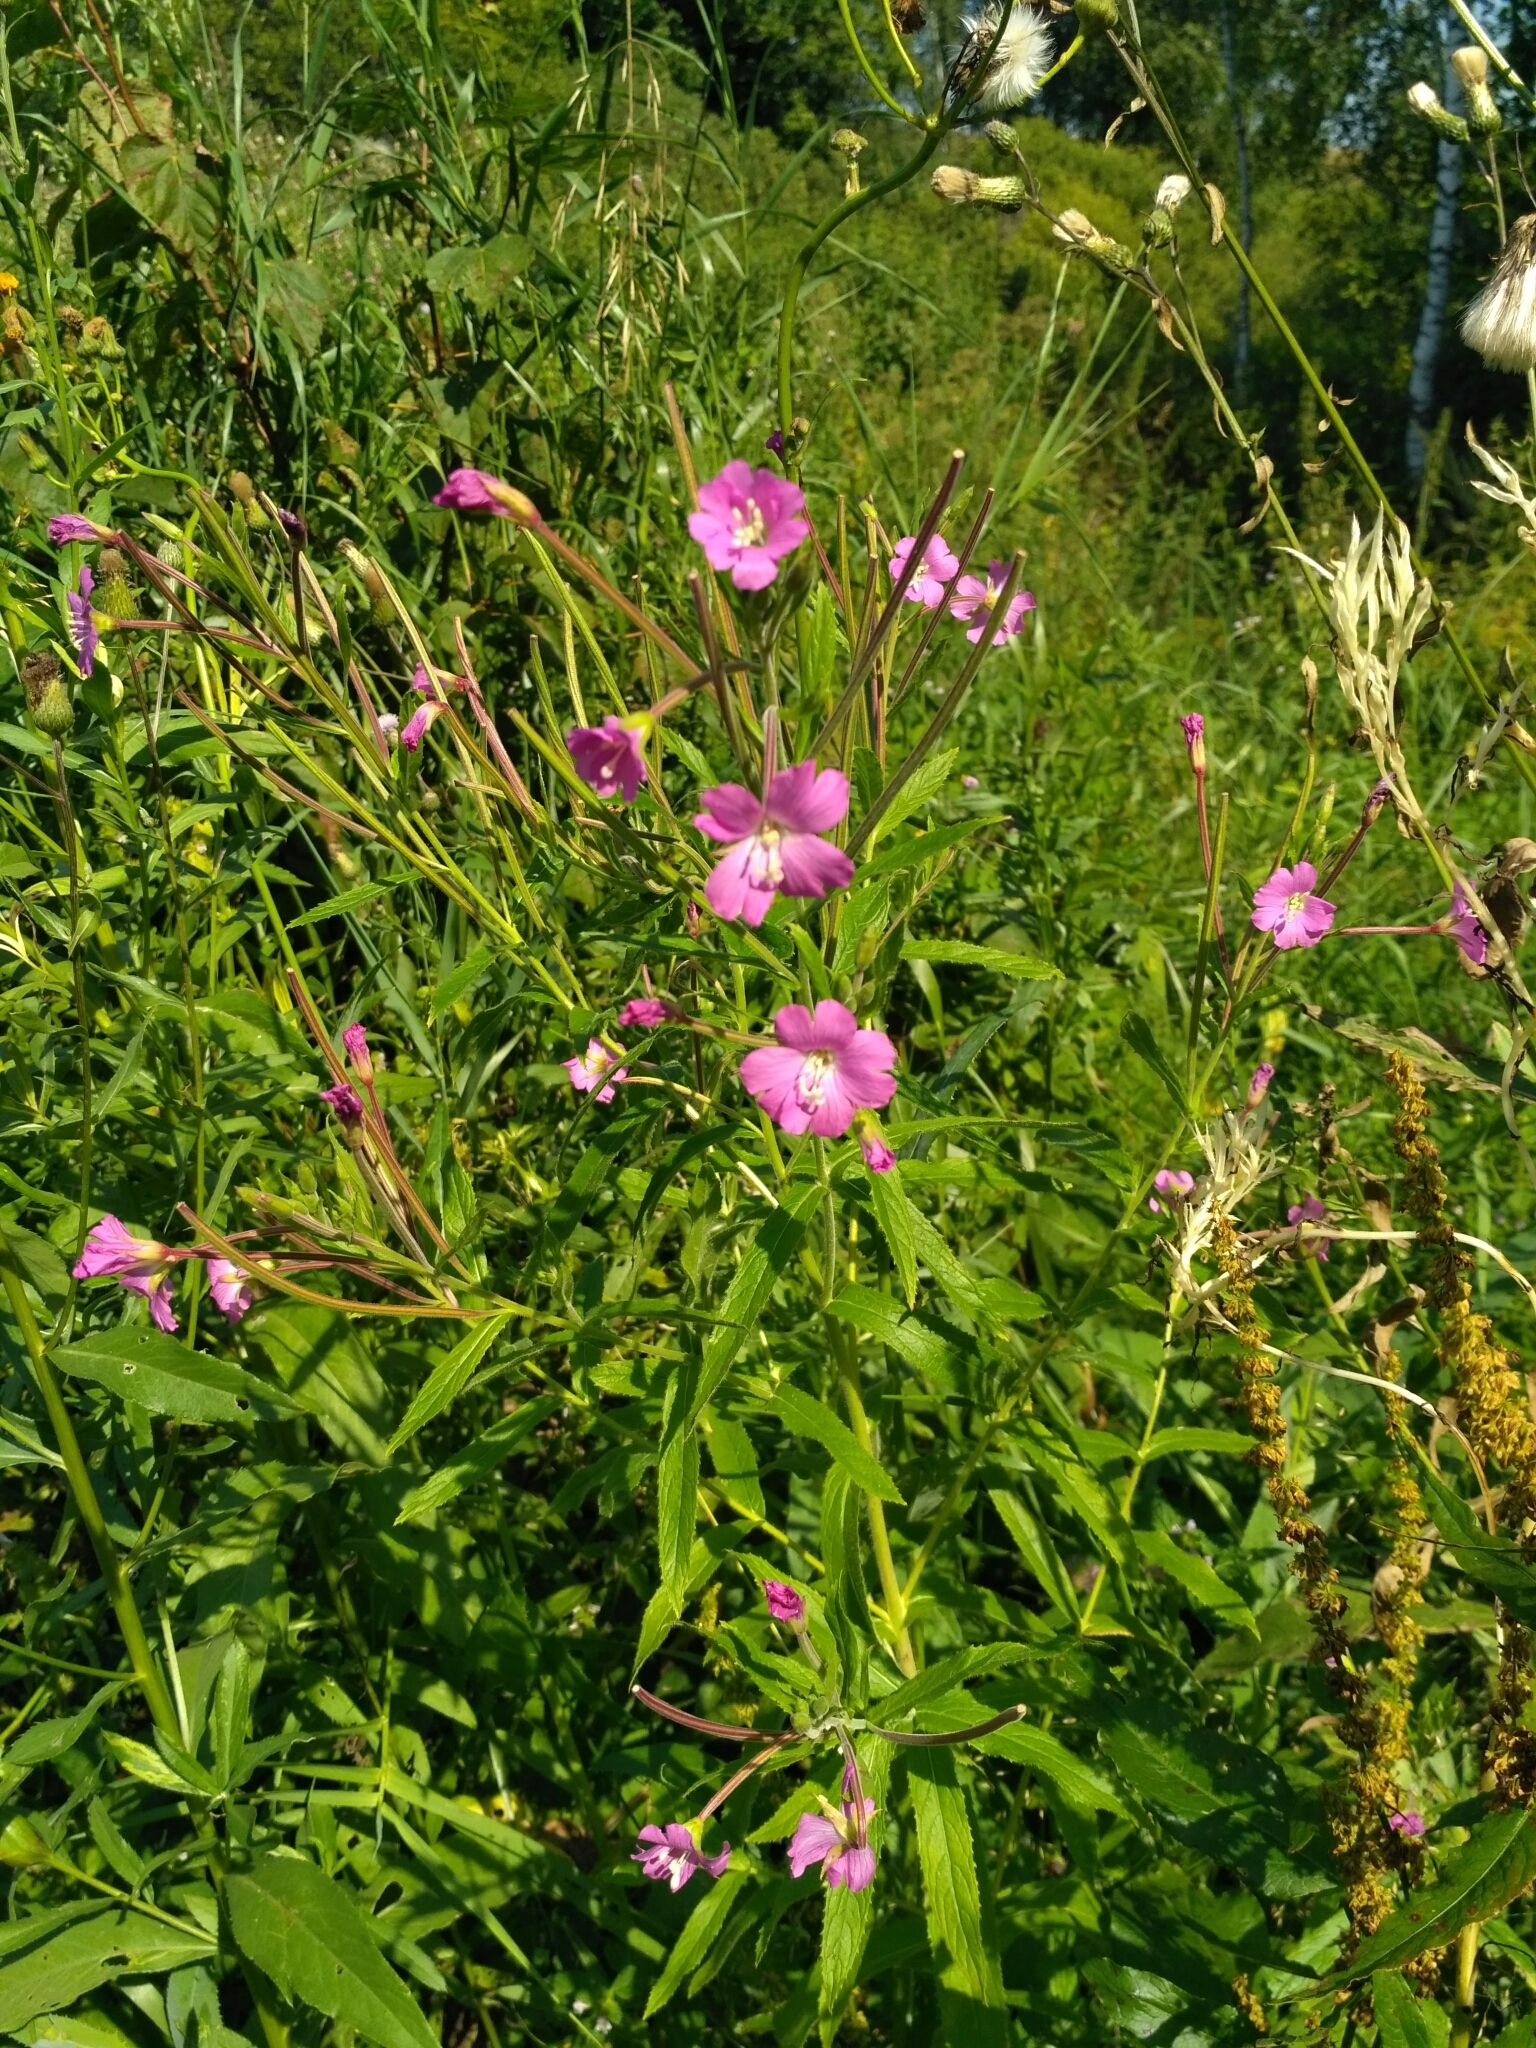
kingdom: Plantae
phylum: Tracheophyta
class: Magnoliopsida
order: Myrtales
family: Onagraceae
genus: Epilobium
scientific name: Epilobium hirsutum
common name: Great willowherb
